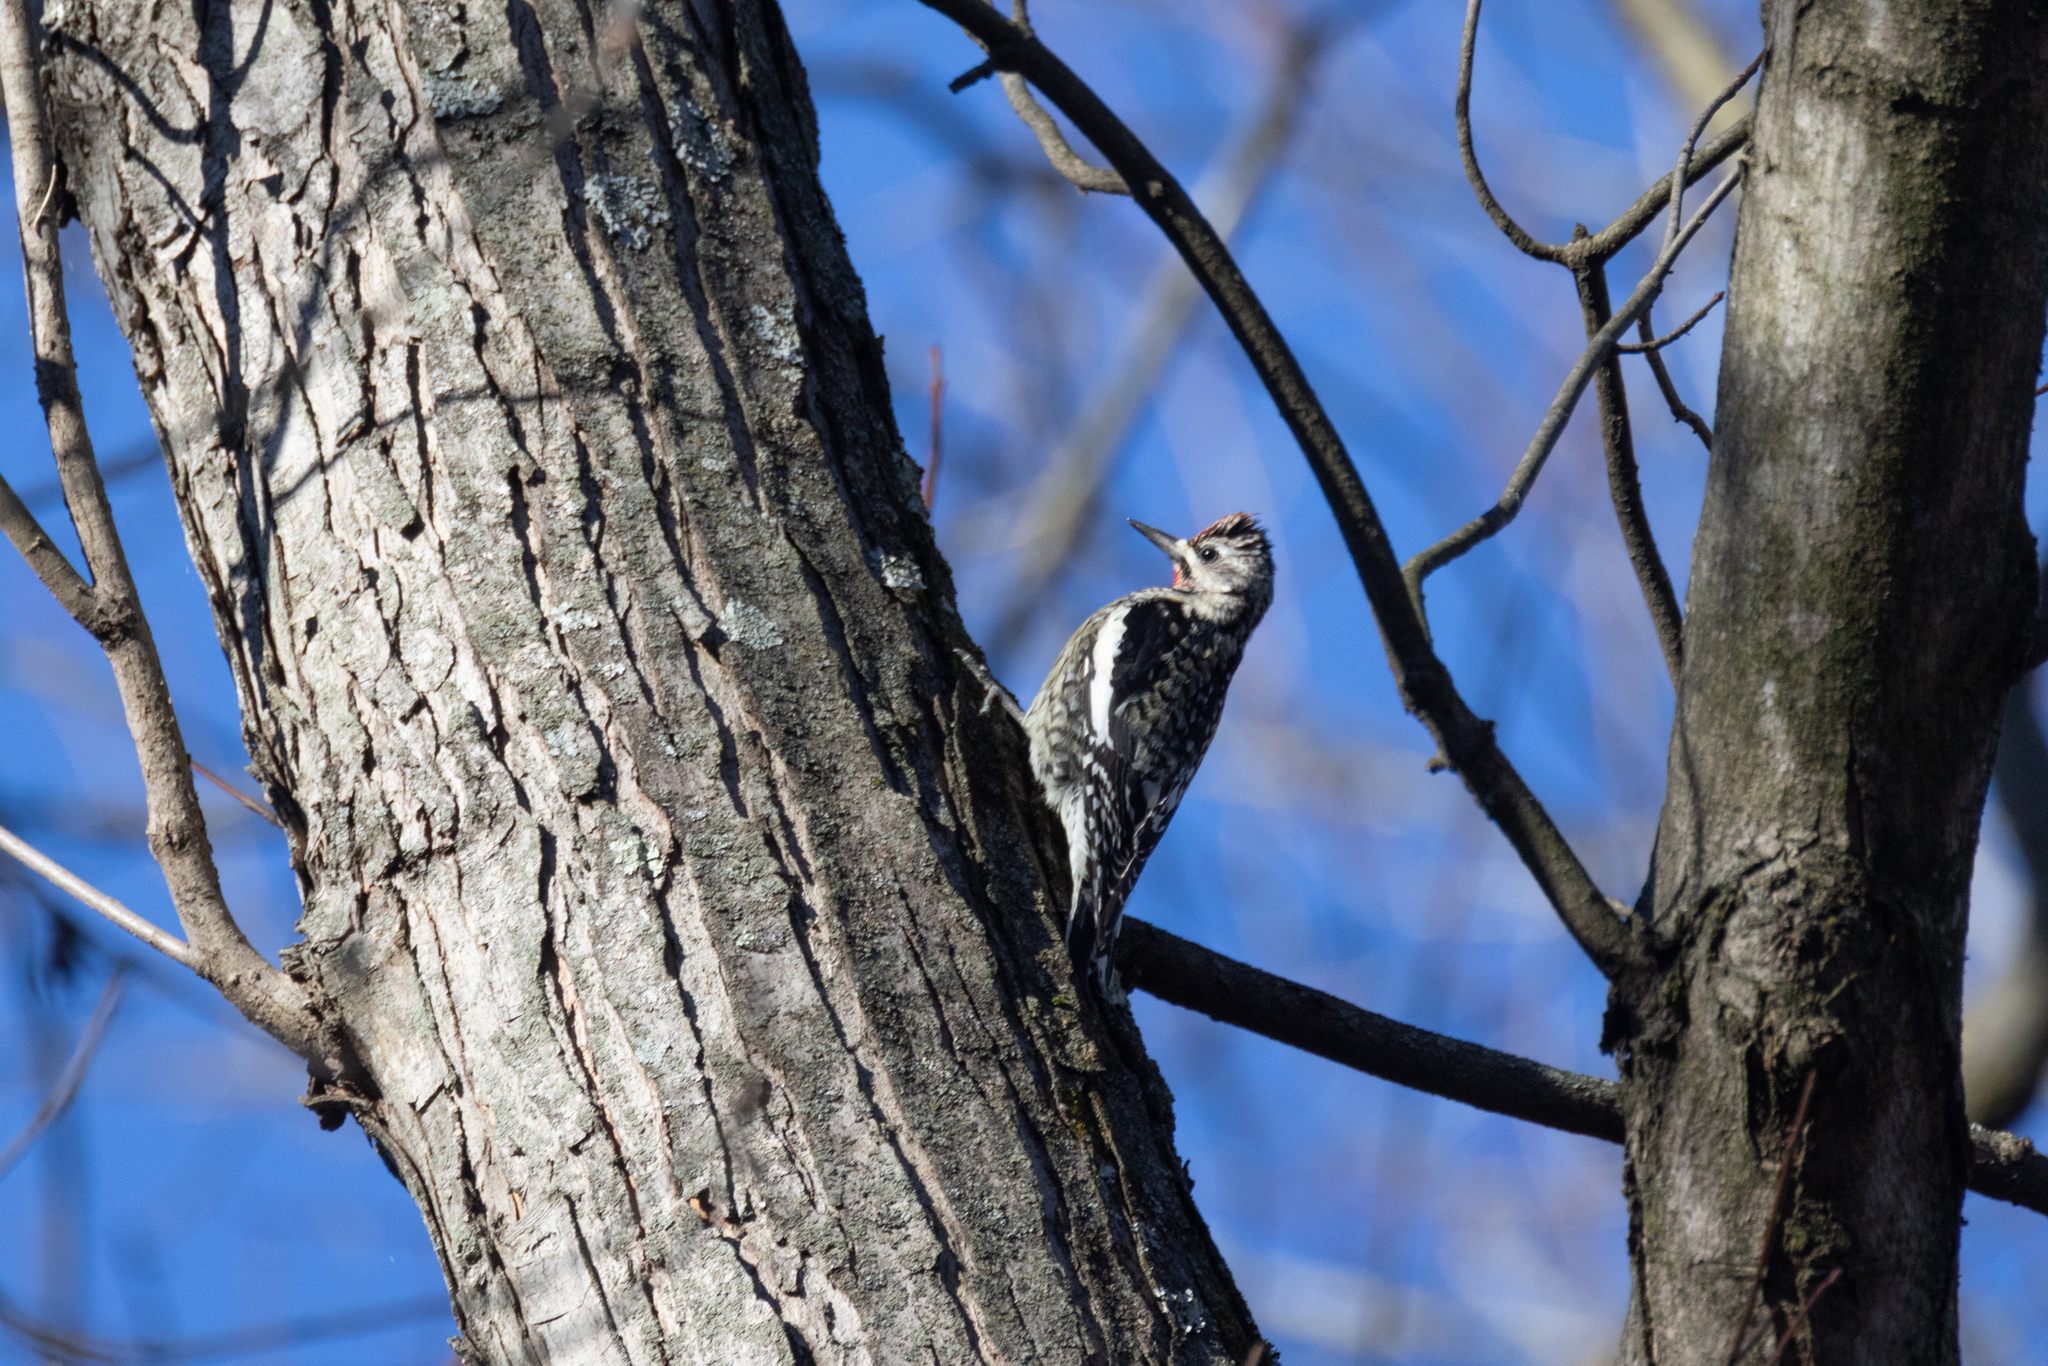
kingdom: Animalia
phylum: Chordata
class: Aves
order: Piciformes
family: Picidae
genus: Sphyrapicus
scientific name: Sphyrapicus varius
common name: Yellow-bellied sapsucker
